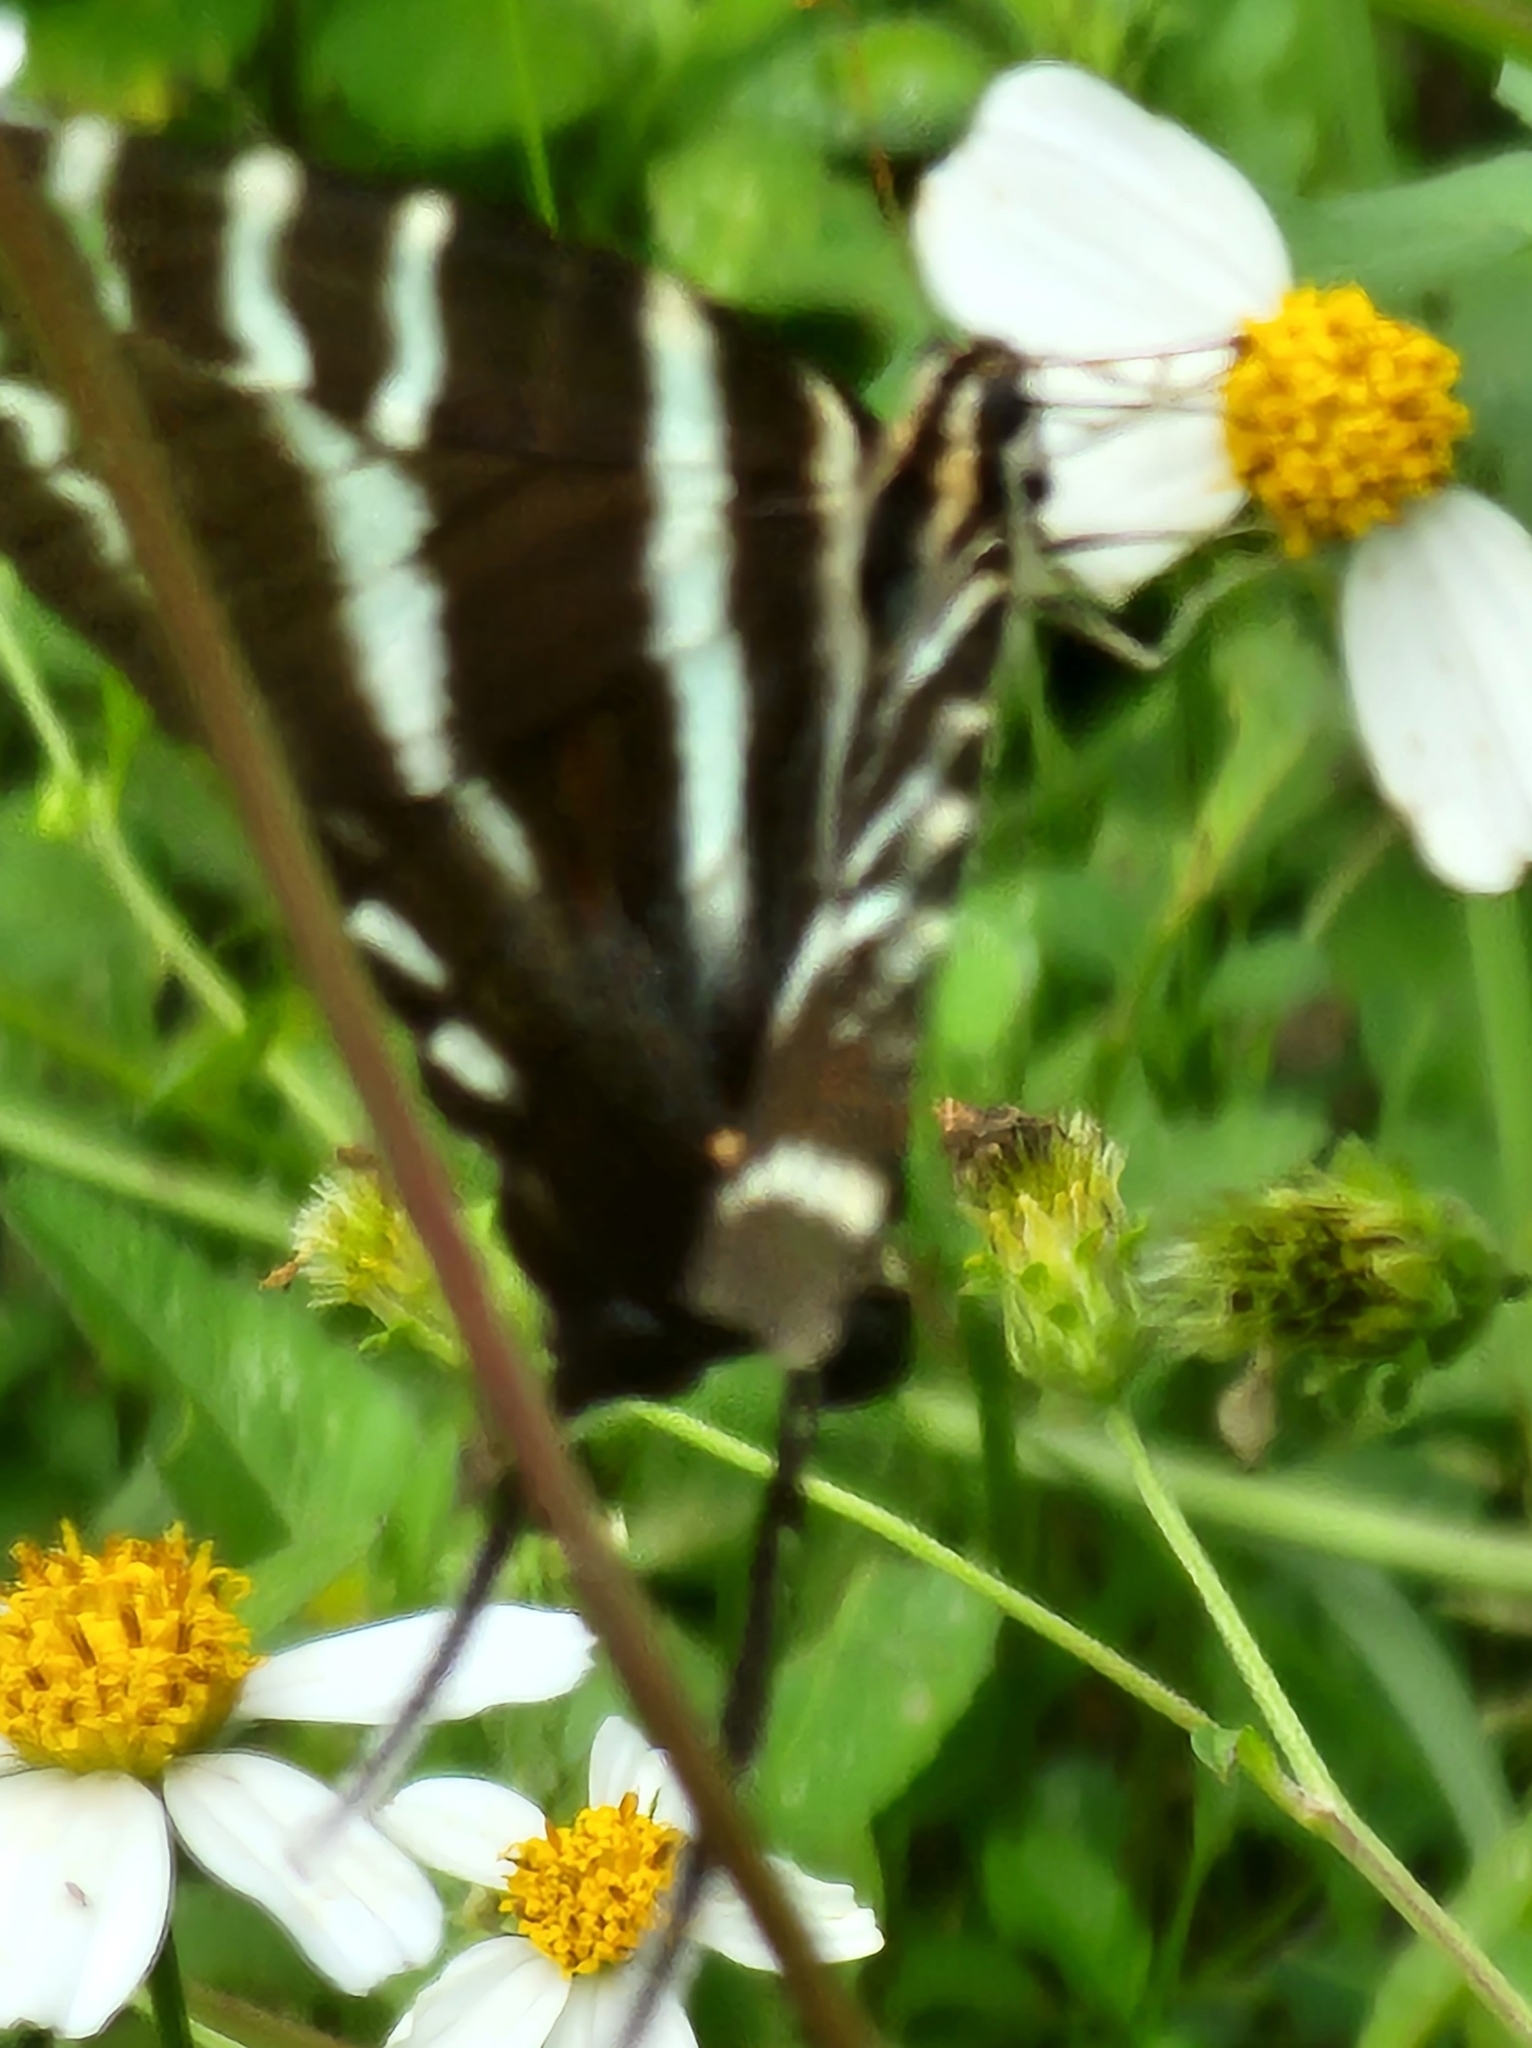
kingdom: Animalia
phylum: Arthropoda
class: Insecta
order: Lepidoptera
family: Papilionidae
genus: Protographium
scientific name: Protographium marcellus
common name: Zebra swallowtail
